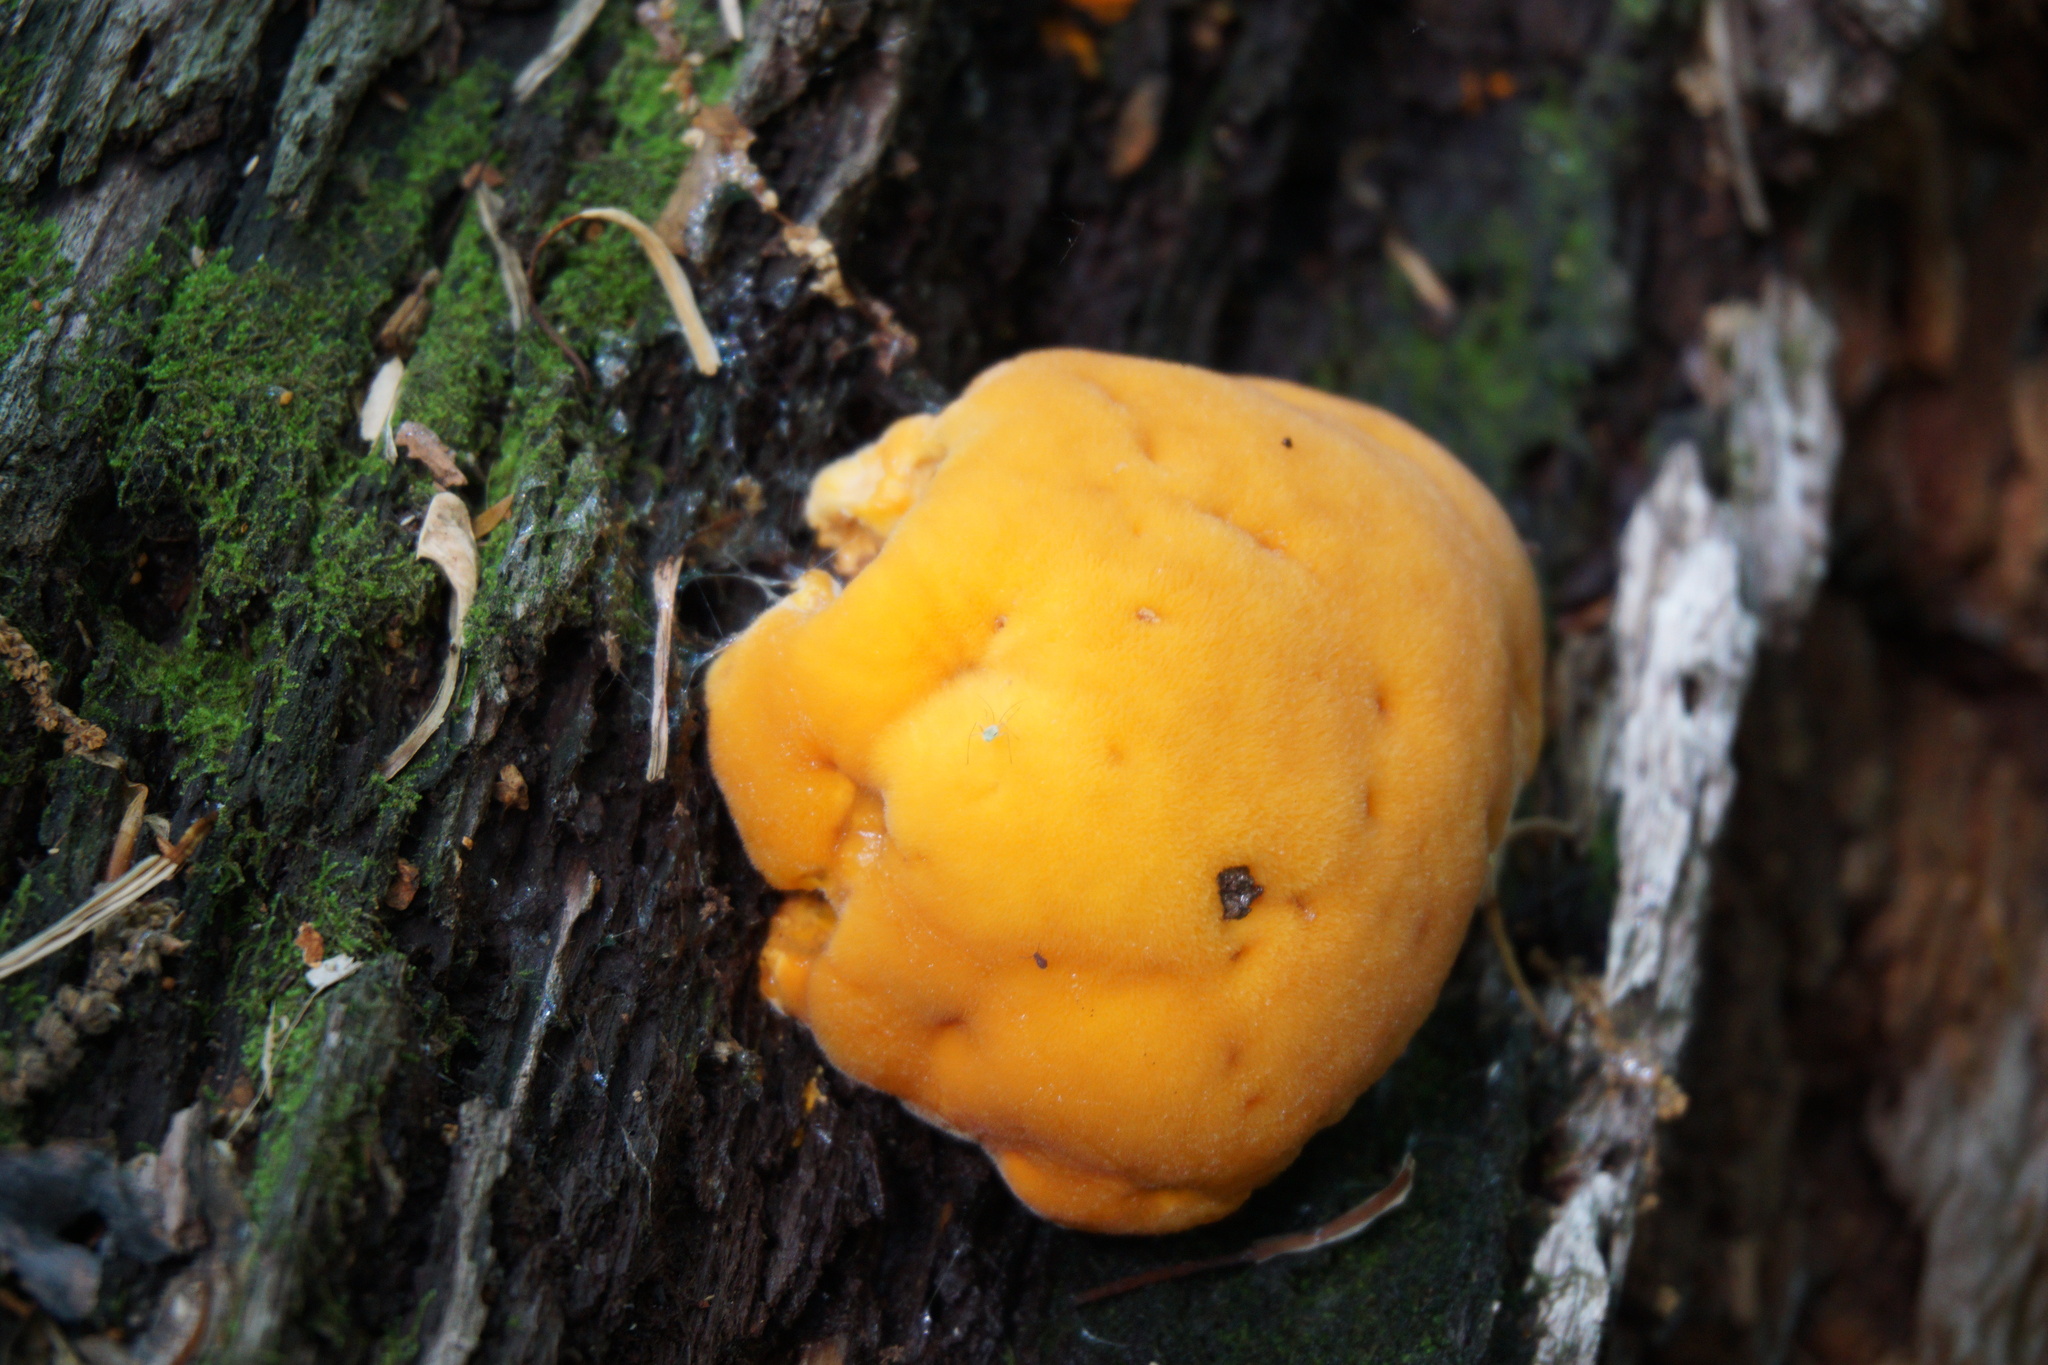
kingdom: Fungi
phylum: Basidiomycota
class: Agaricomycetes
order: Polyporales
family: Phanerochaetaceae
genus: Hapalopilus
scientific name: Hapalopilus croceus
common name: Orange polypore
